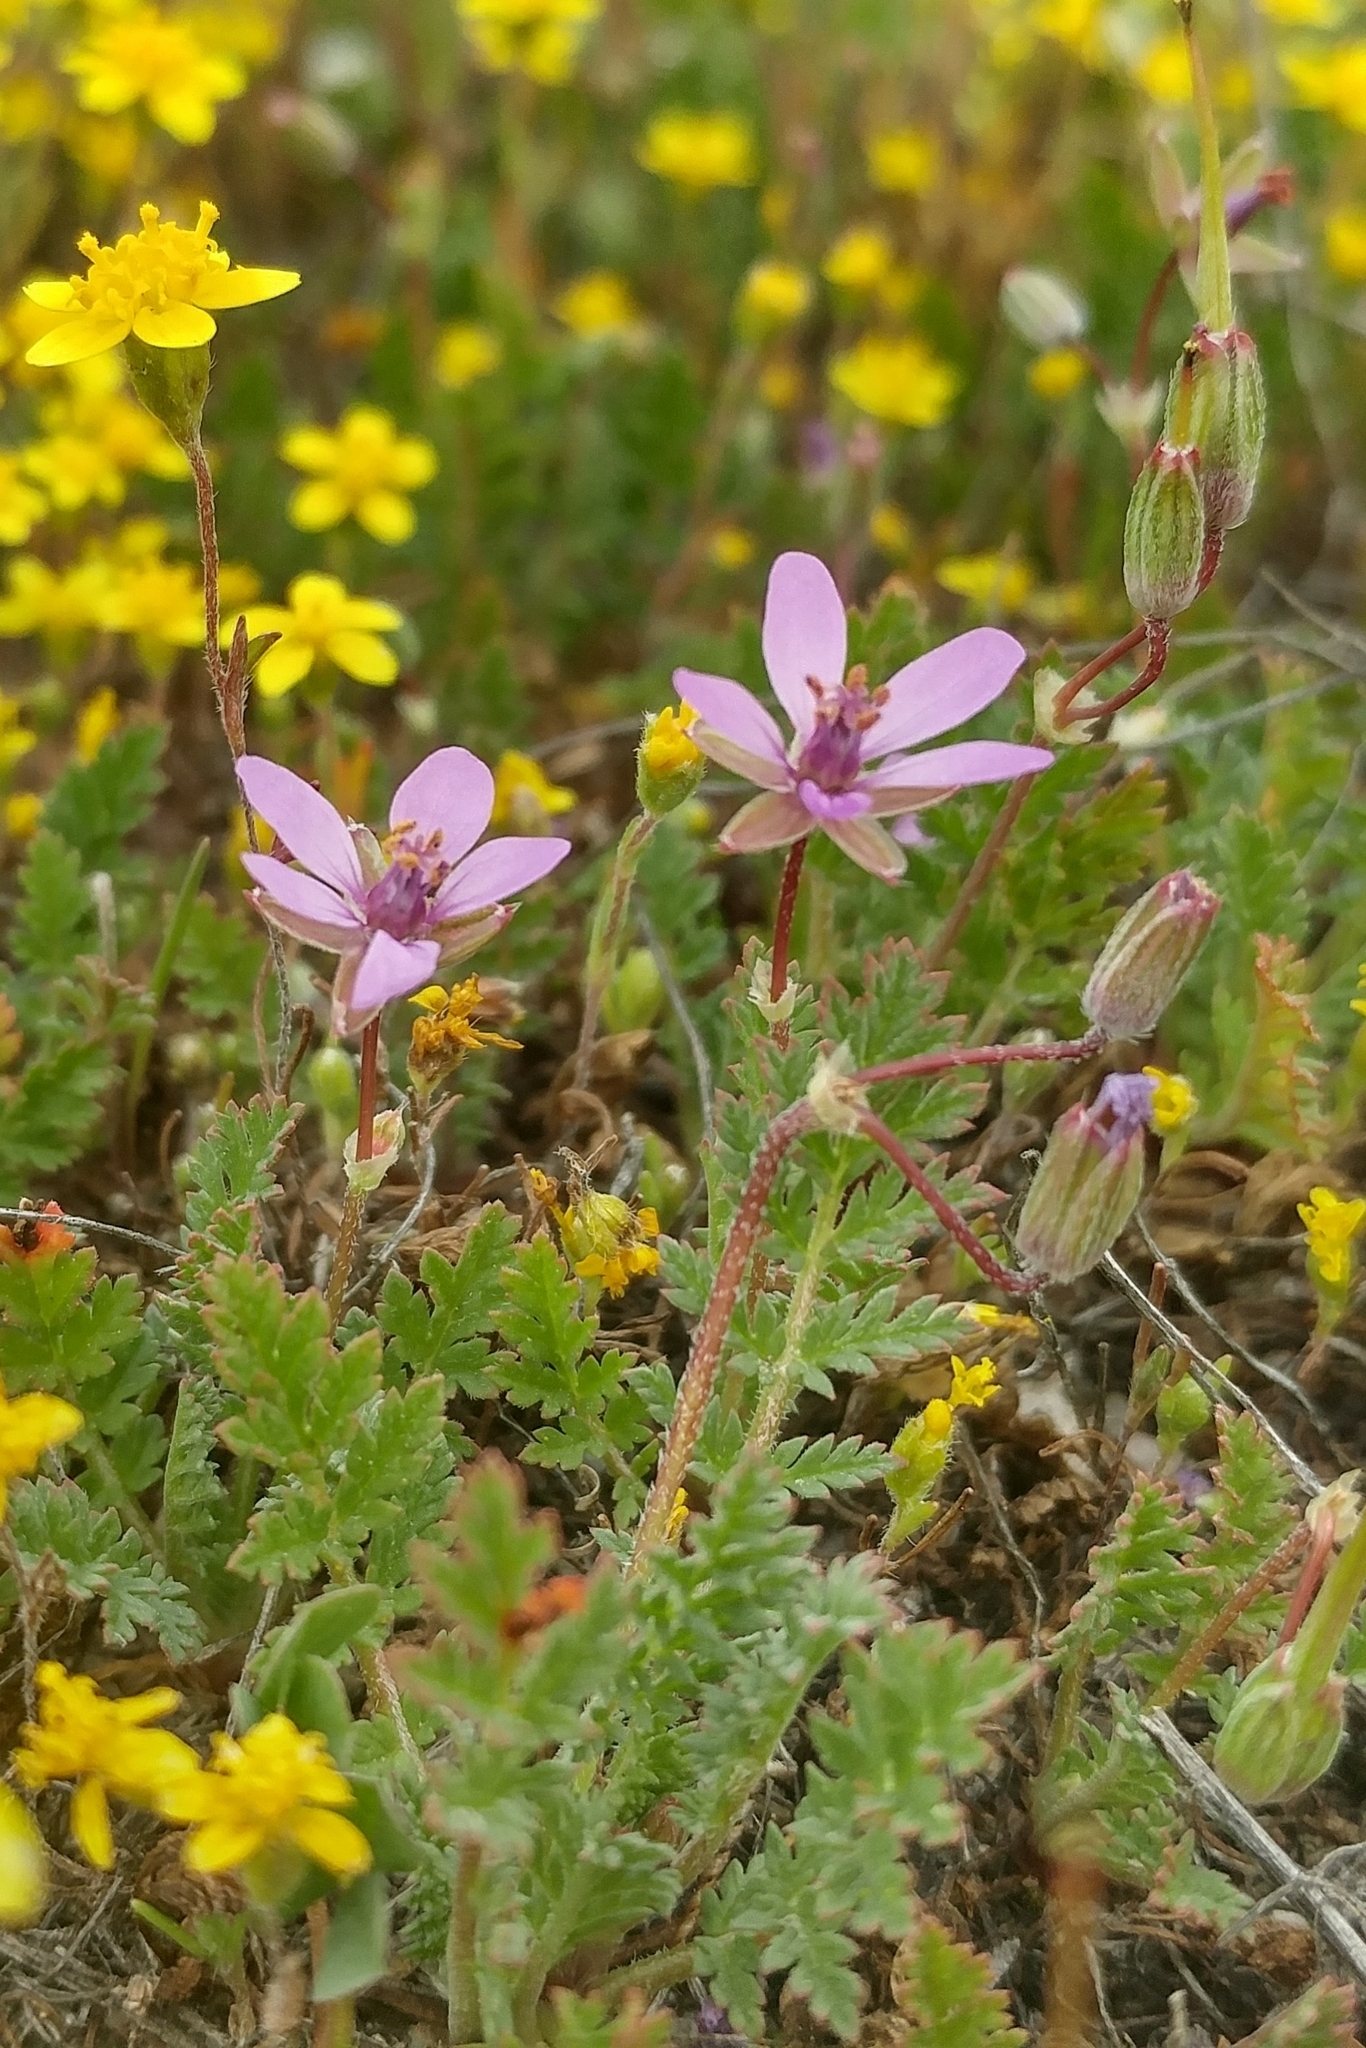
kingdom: Plantae
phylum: Tracheophyta
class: Magnoliopsida
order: Geraniales
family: Geraniaceae
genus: Erodium
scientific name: Erodium cicutarium
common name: Common stork's-bill
